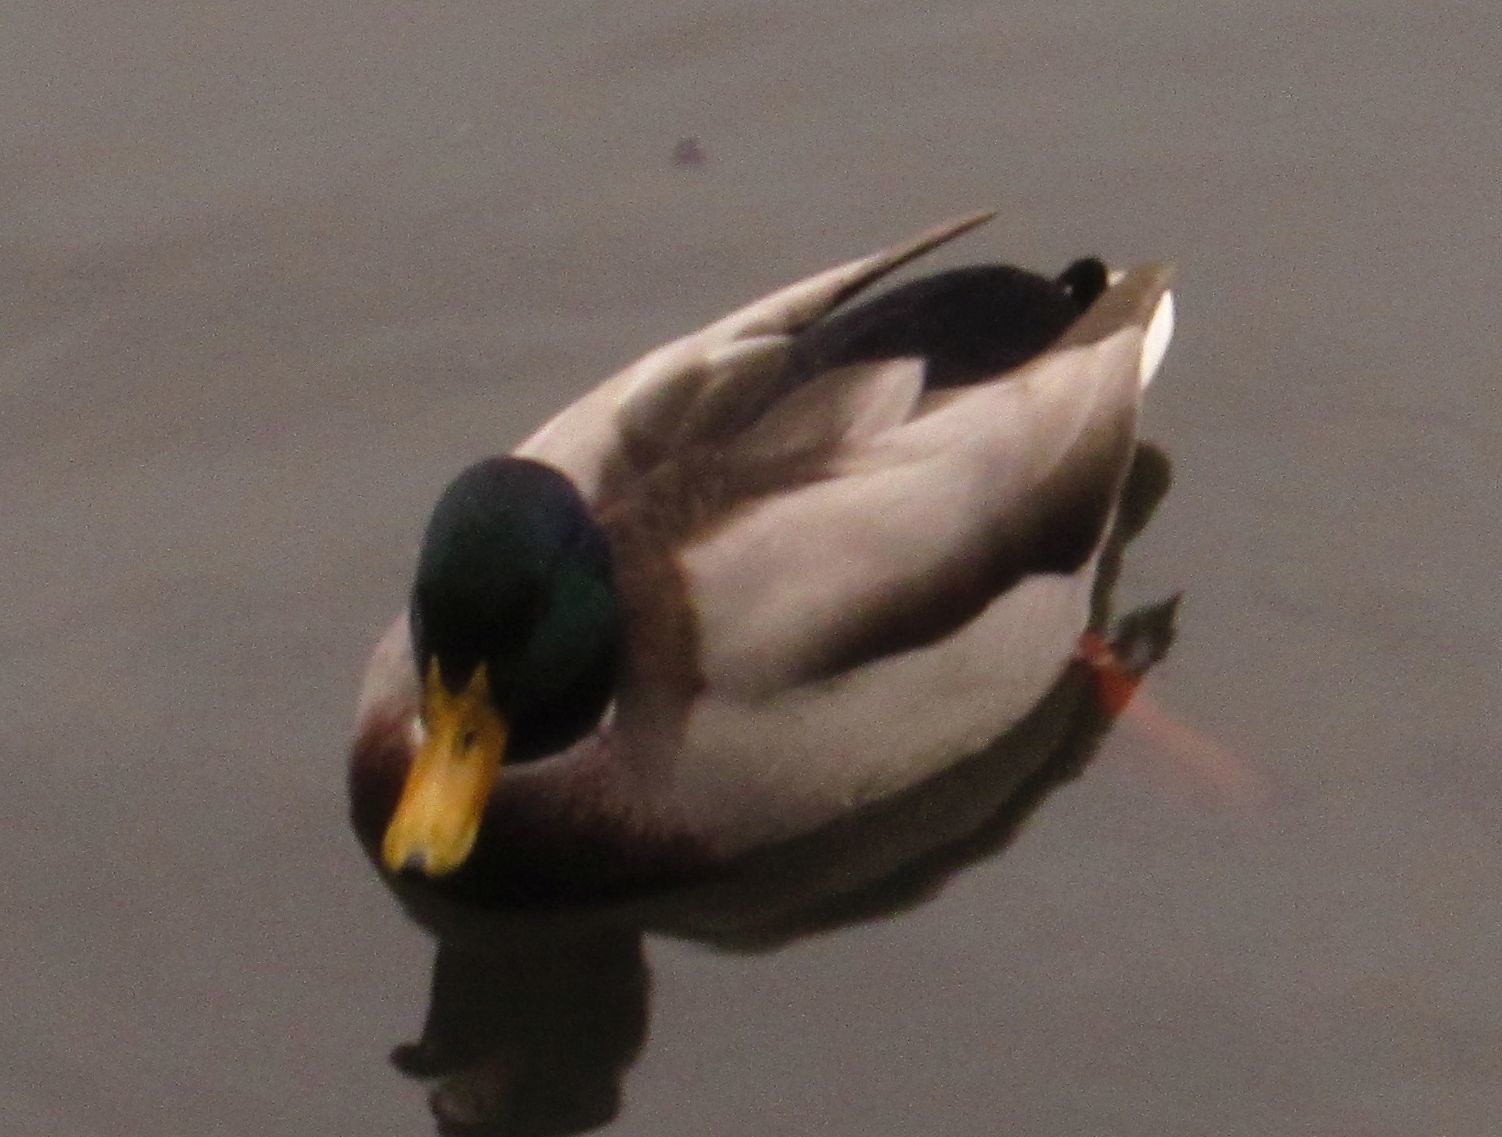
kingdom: Animalia
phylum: Chordata
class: Aves
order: Anseriformes
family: Anatidae
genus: Anas
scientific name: Anas platyrhynchos
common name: Mallard
